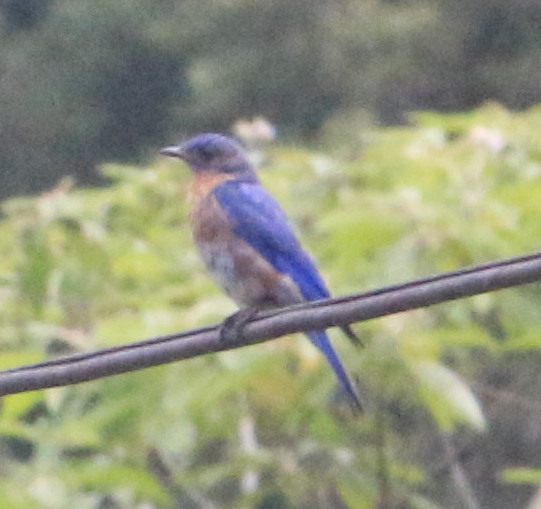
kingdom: Animalia
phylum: Chordata
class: Aves
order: Passeriformes
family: Turdidae
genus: Sialia
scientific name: Sialia sialis
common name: Eastern bluebird
